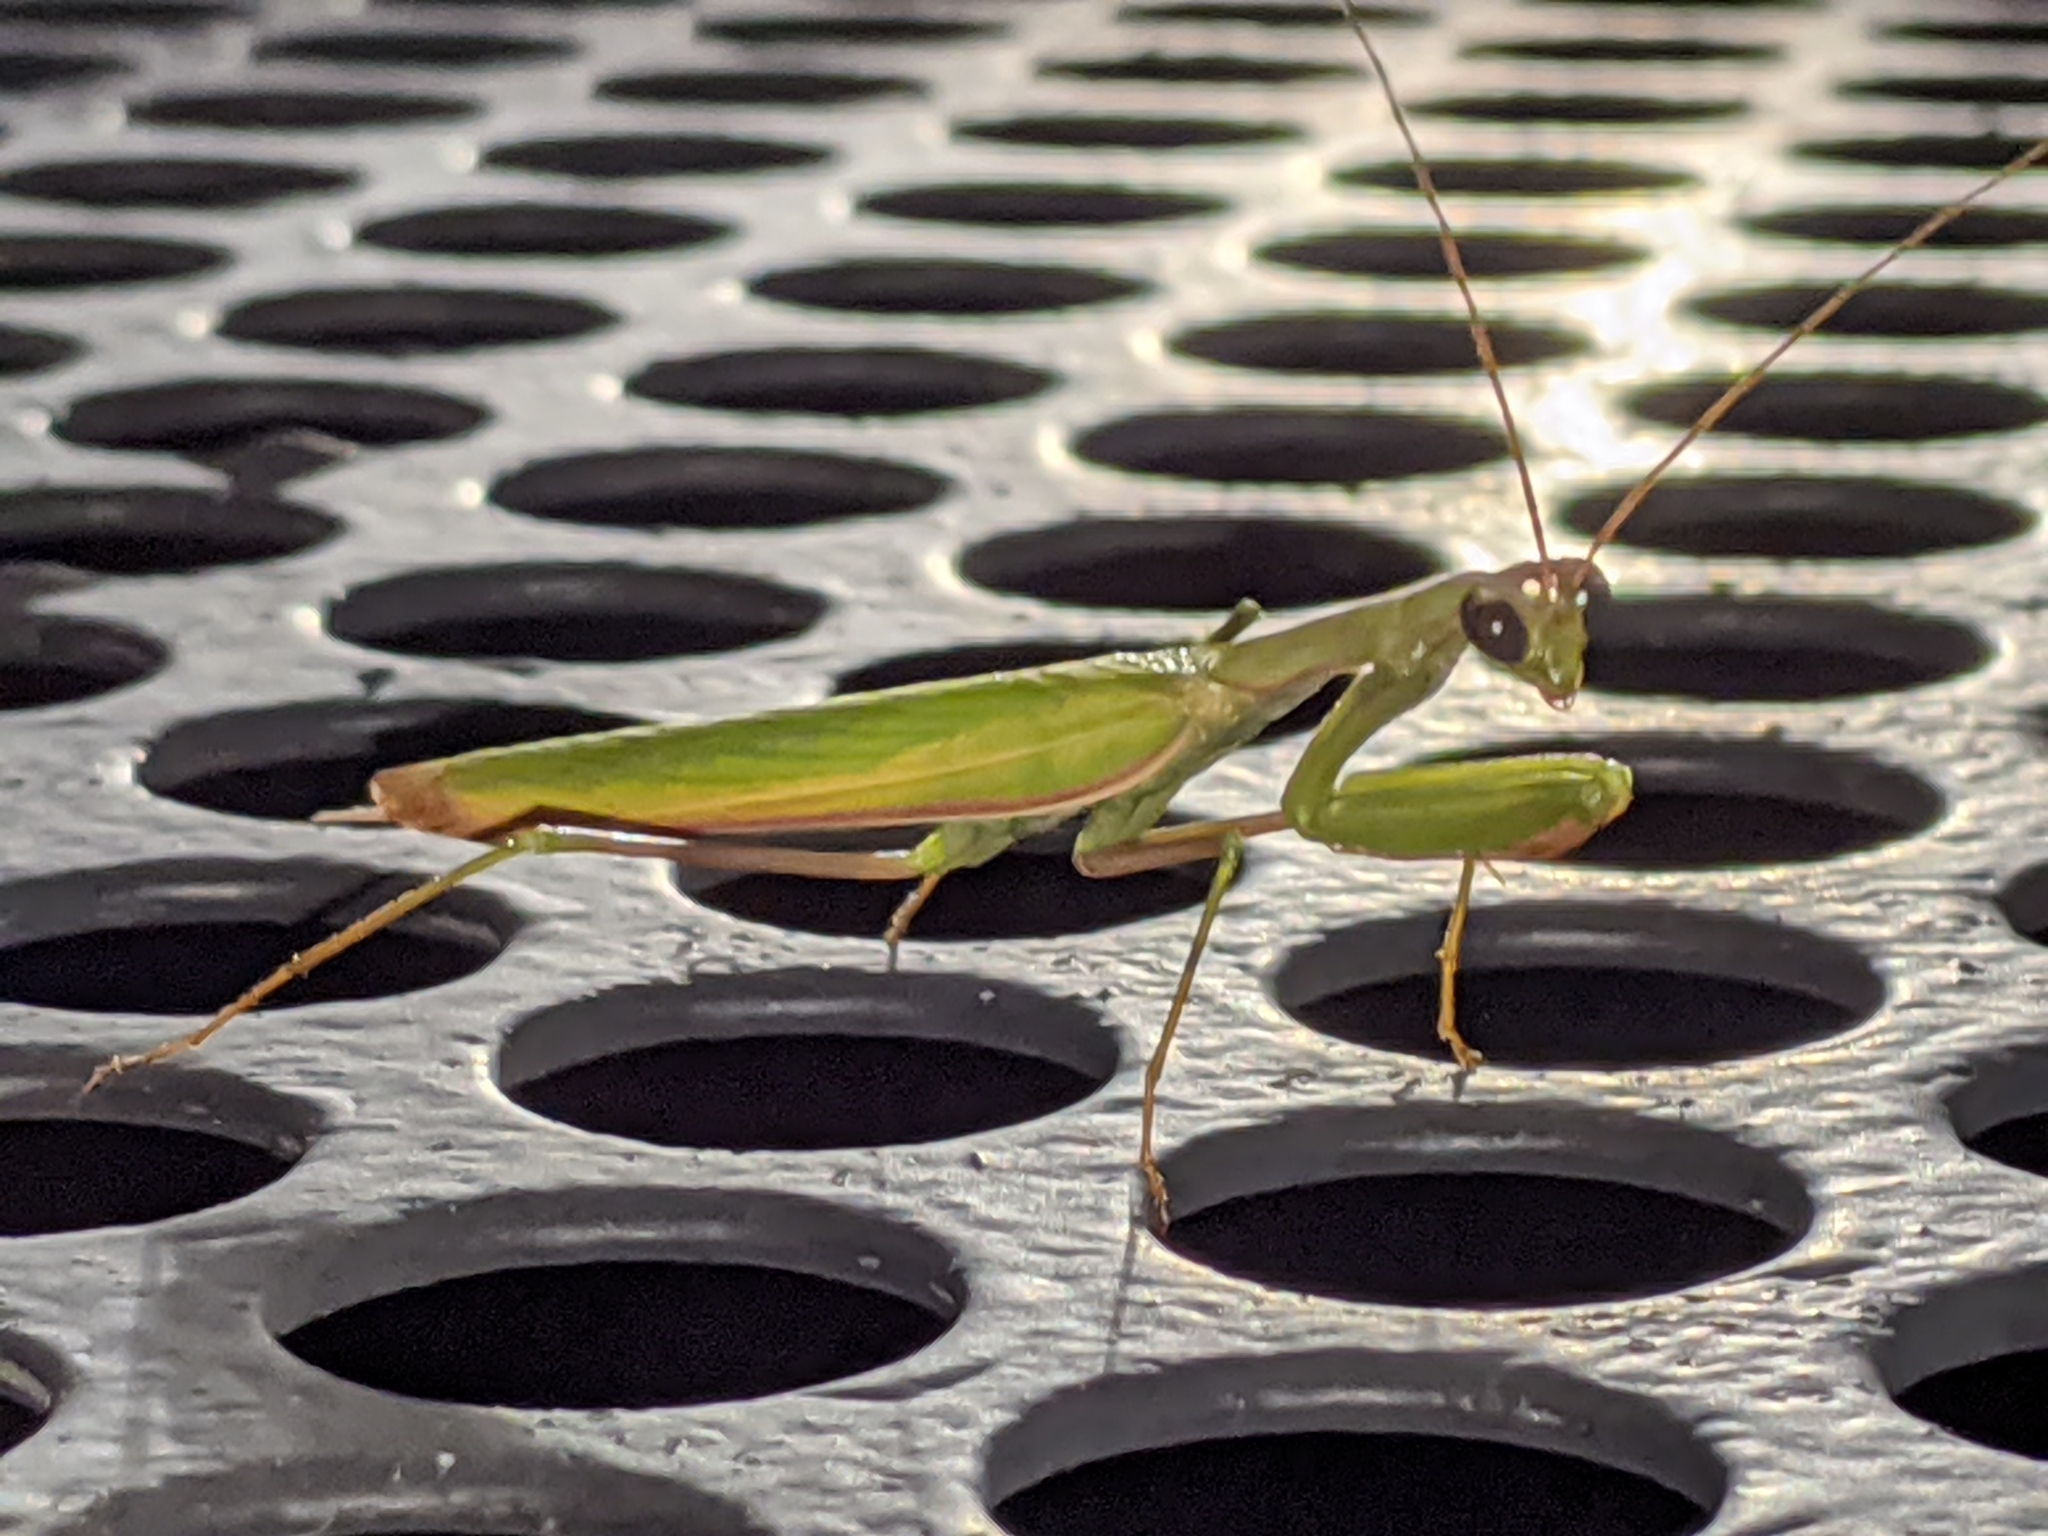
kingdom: Animalia
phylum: Arthropoda
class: Insecta
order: Mantodea
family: Mantidae
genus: Mantis
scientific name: Mantis religiosa
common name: Praying mantis
